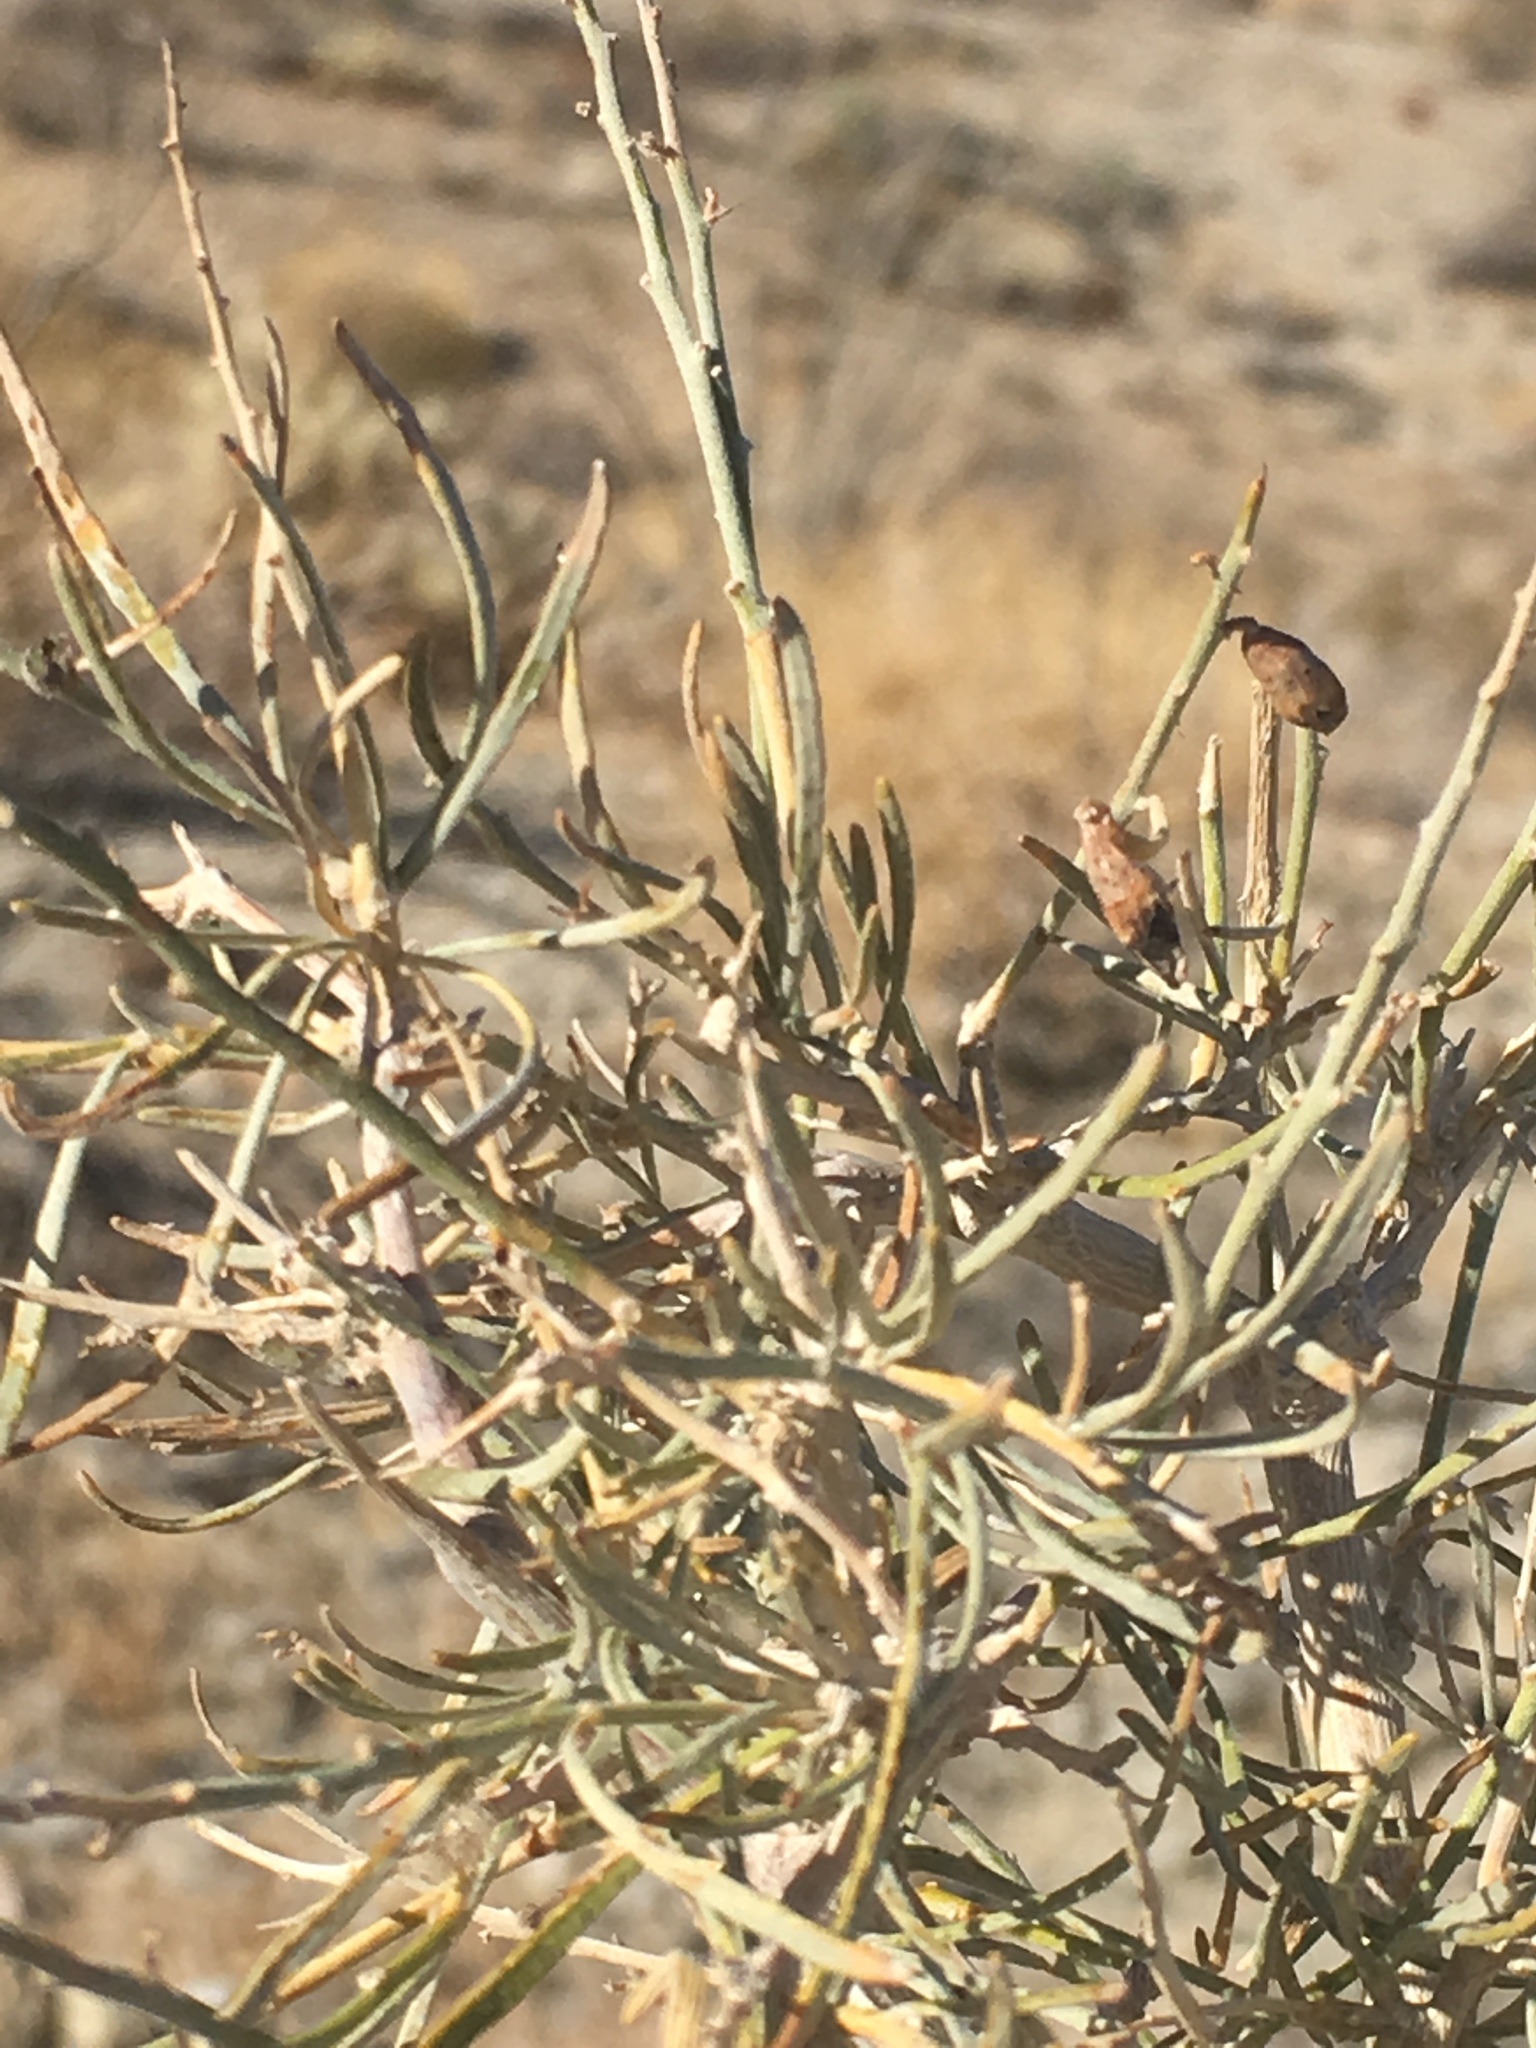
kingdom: Plantae
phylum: Tracheophyta
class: Magnoliopsida
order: Fabales
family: Fabaceae
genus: Psorothamnus
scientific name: Psorothamnus schottii
